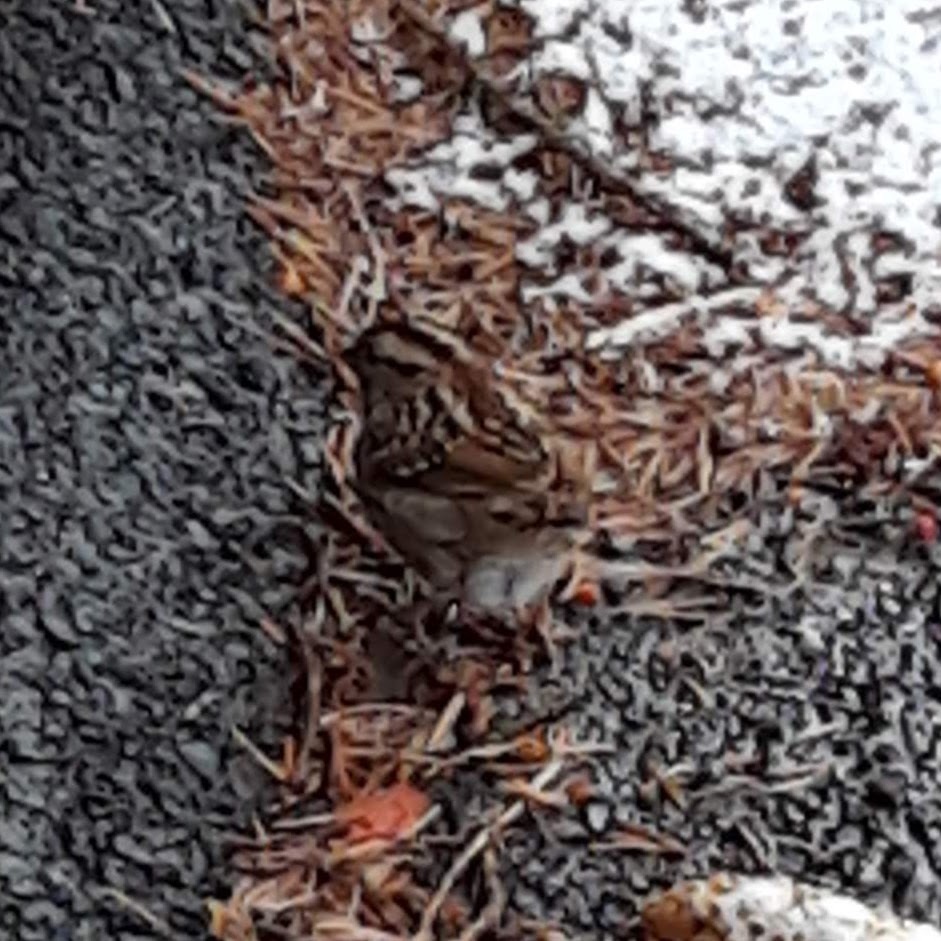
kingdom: Animalia
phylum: Chordata
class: Aves
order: Passeriformes
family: Passerellidae
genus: Zonotrichia
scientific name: Zonotrichia albicollis
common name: White-throated sparrow
